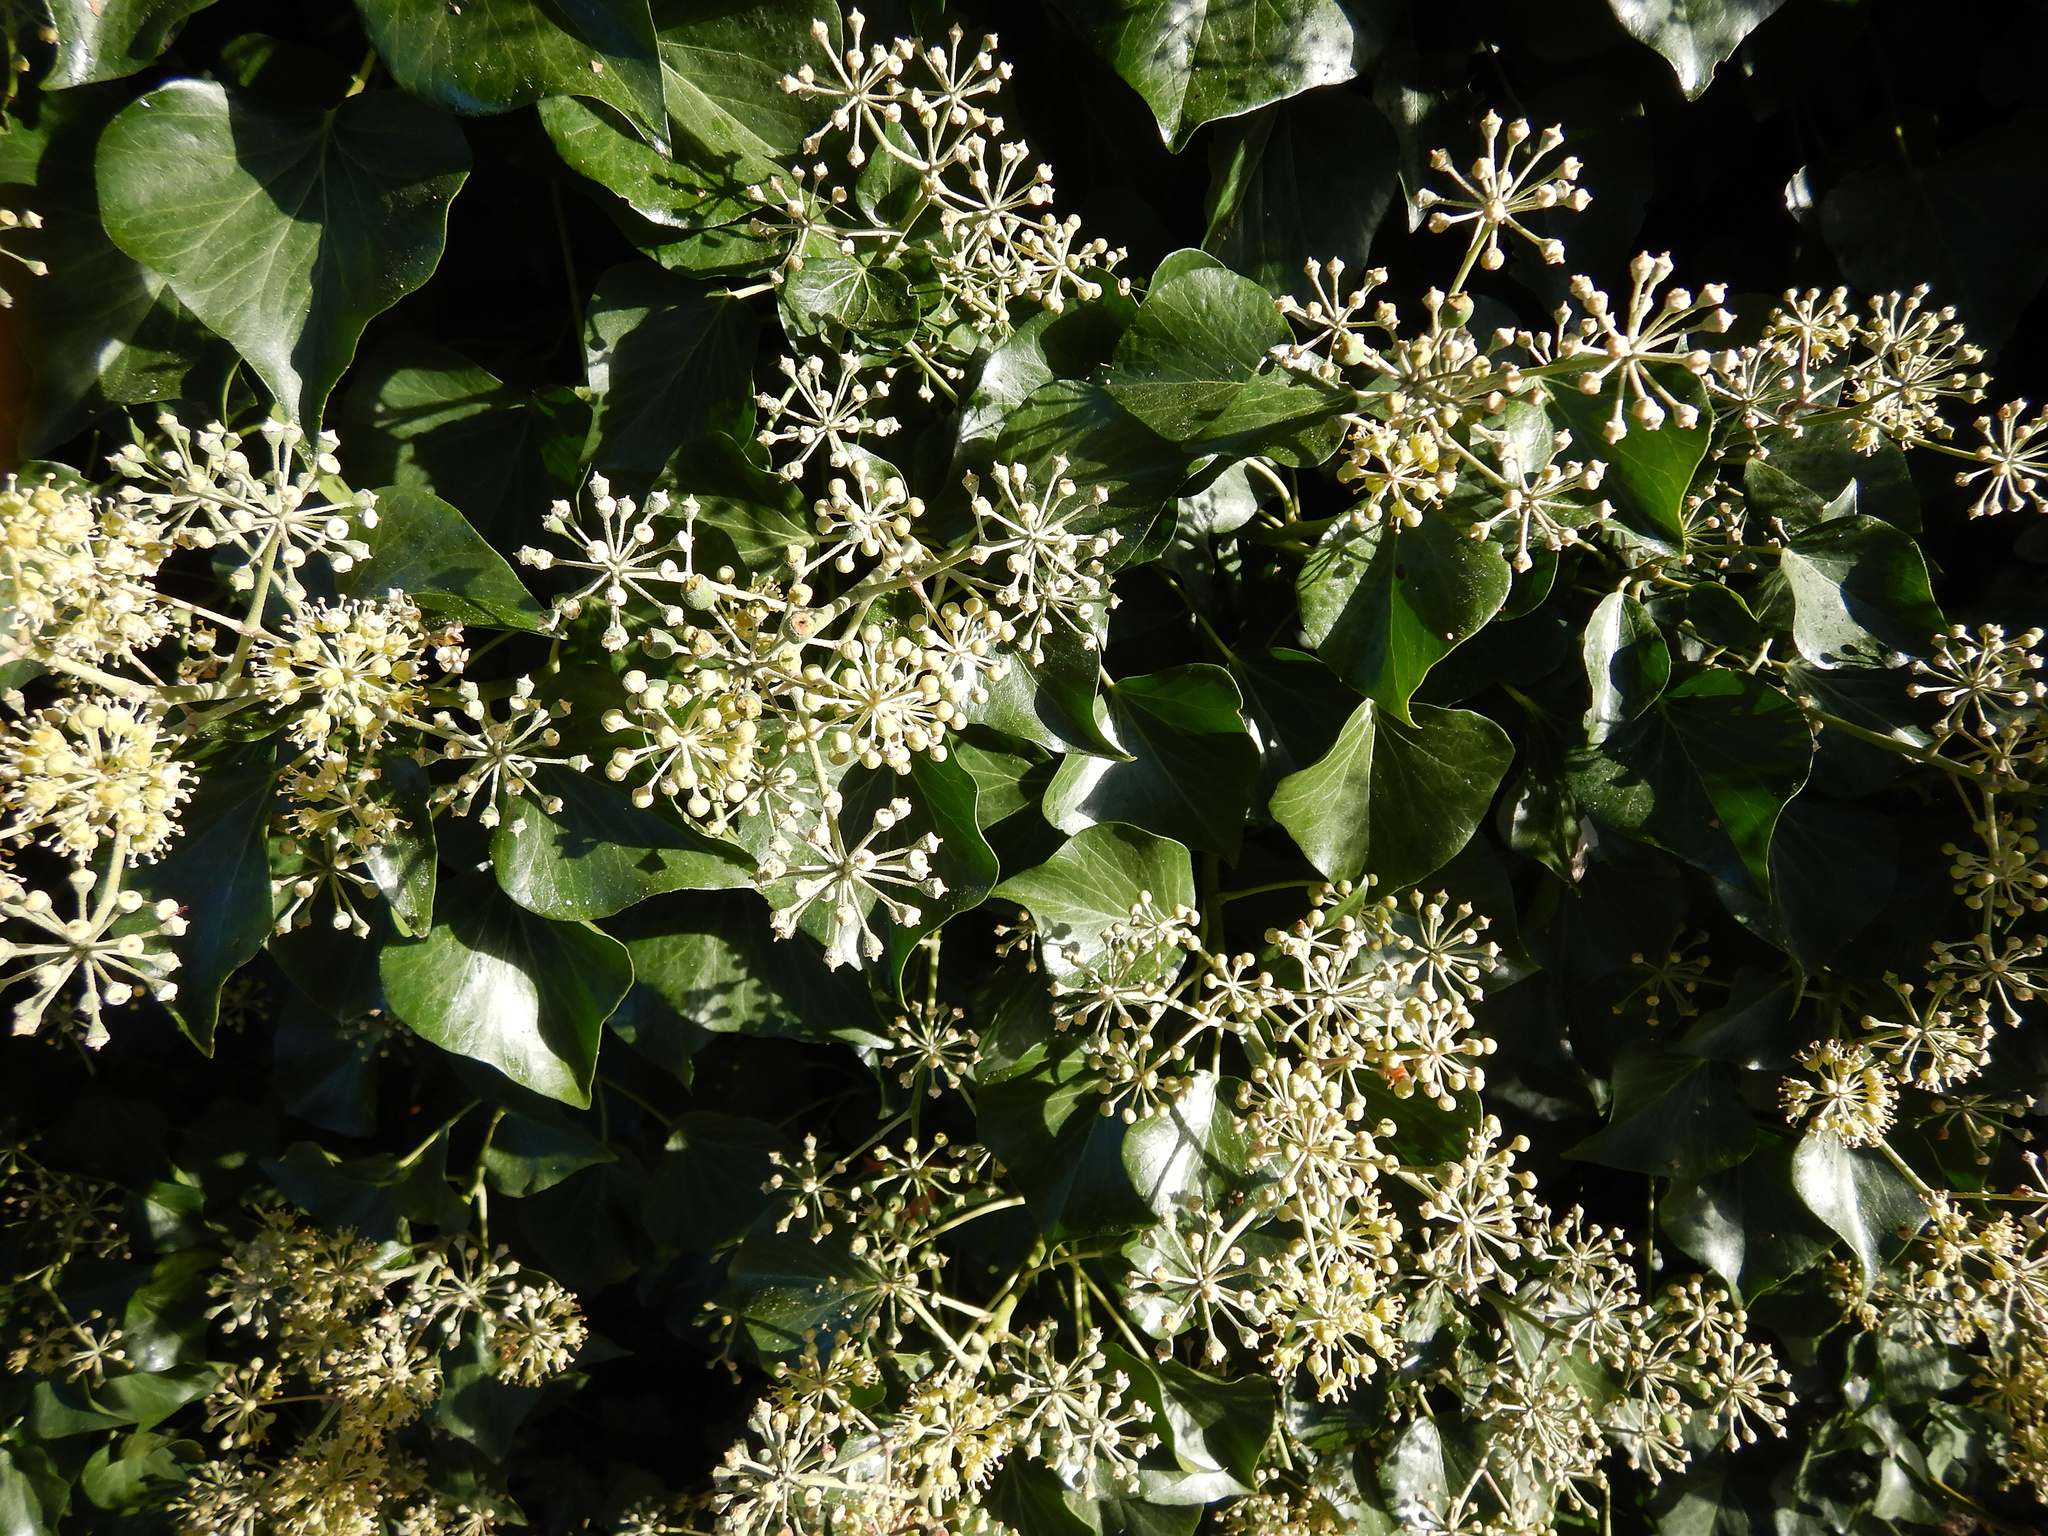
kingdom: Plantae
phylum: Tracheophyta
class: Magnoliopsida
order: Apiales
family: Araliaceae
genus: Hedera
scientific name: Hedera helix
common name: Ivy
